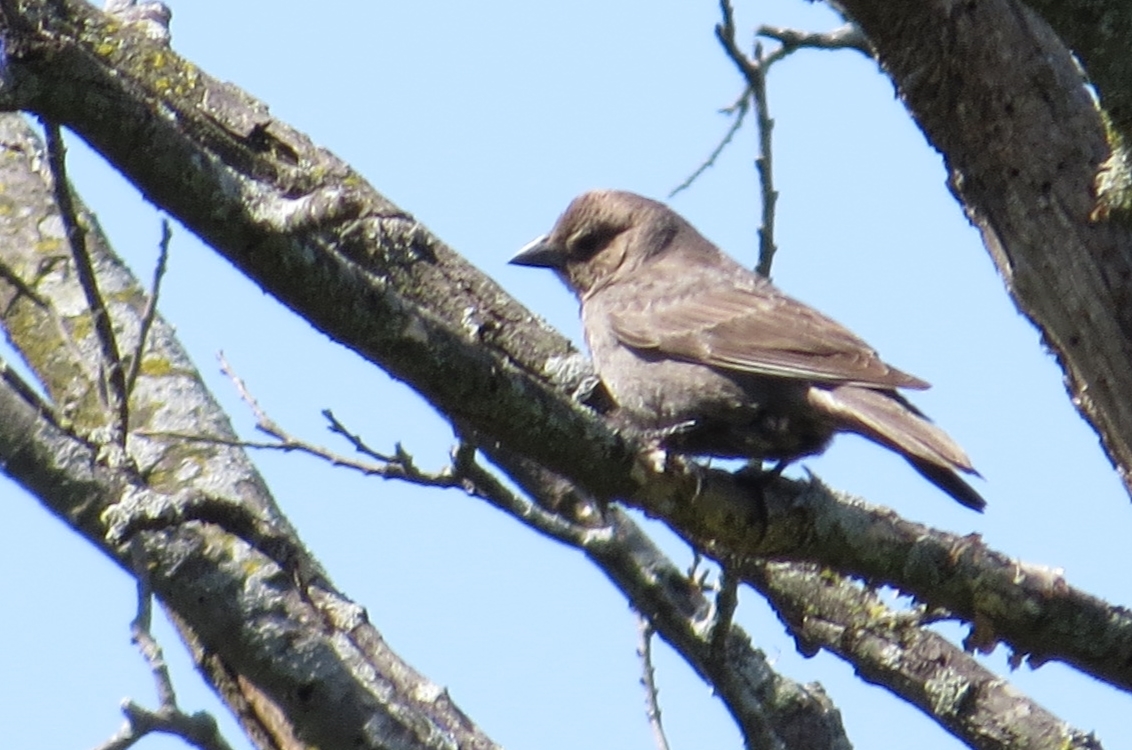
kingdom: Animalia
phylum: Chordata
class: Aves
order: Passeriformes
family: Icteridae
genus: Molothrus
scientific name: Molothrus ater
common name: Brown-headed cowbird
